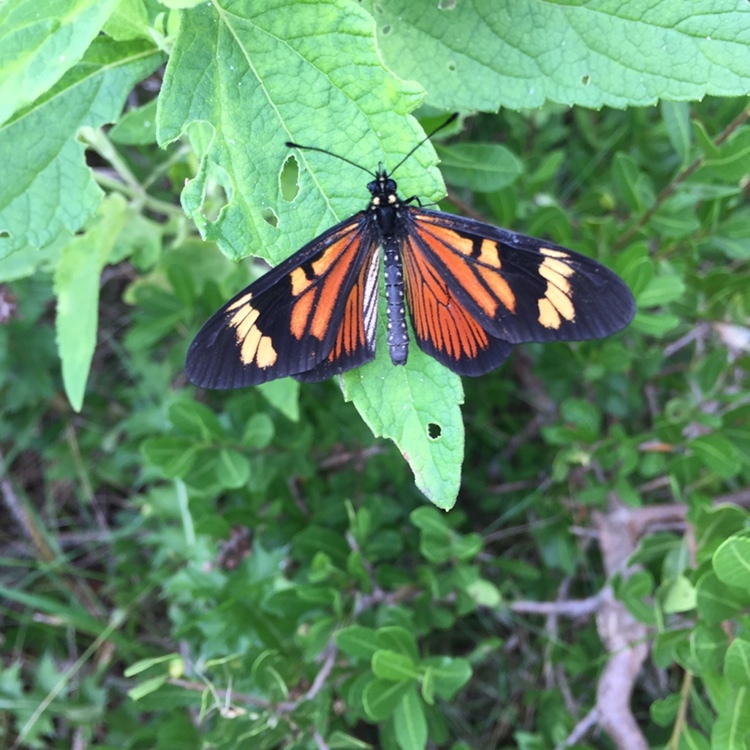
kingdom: Animalia
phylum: Arthropoda
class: Insecta
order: Lepidoptera
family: Nymphalidae
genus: Actinote
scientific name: Actinote pellenea
